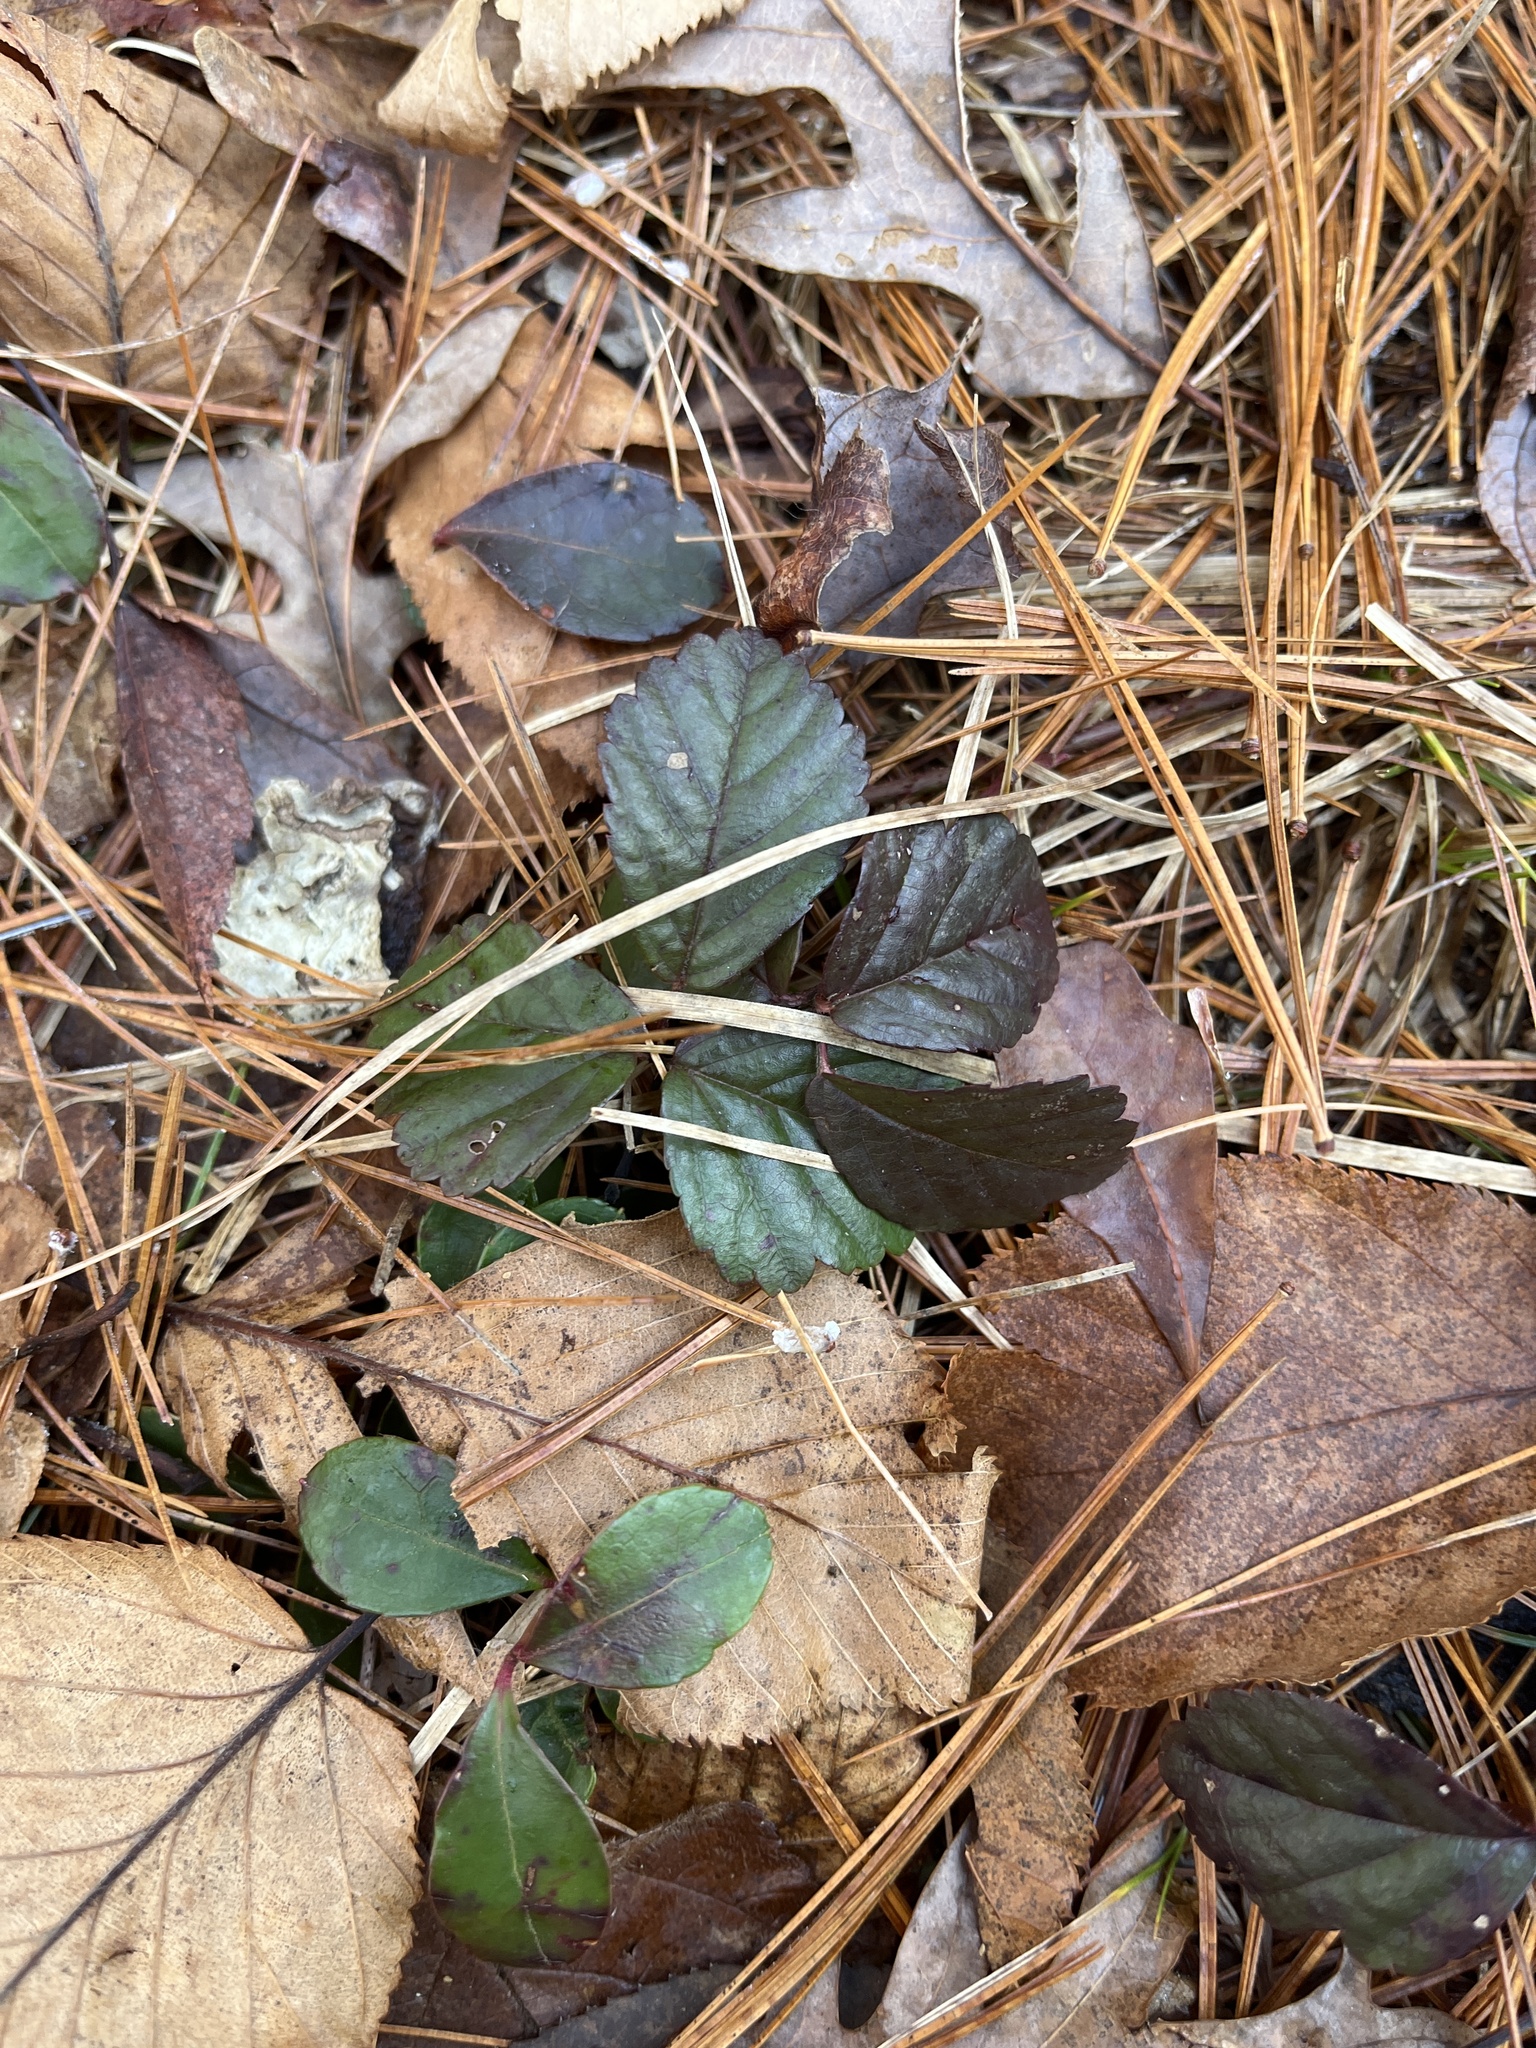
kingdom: Plantae
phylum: Tracheophyta
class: Magnoliopsida
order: Rosales
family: Rosaceae
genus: Rubus
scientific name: Rubus flagellaris
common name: American dewberry
